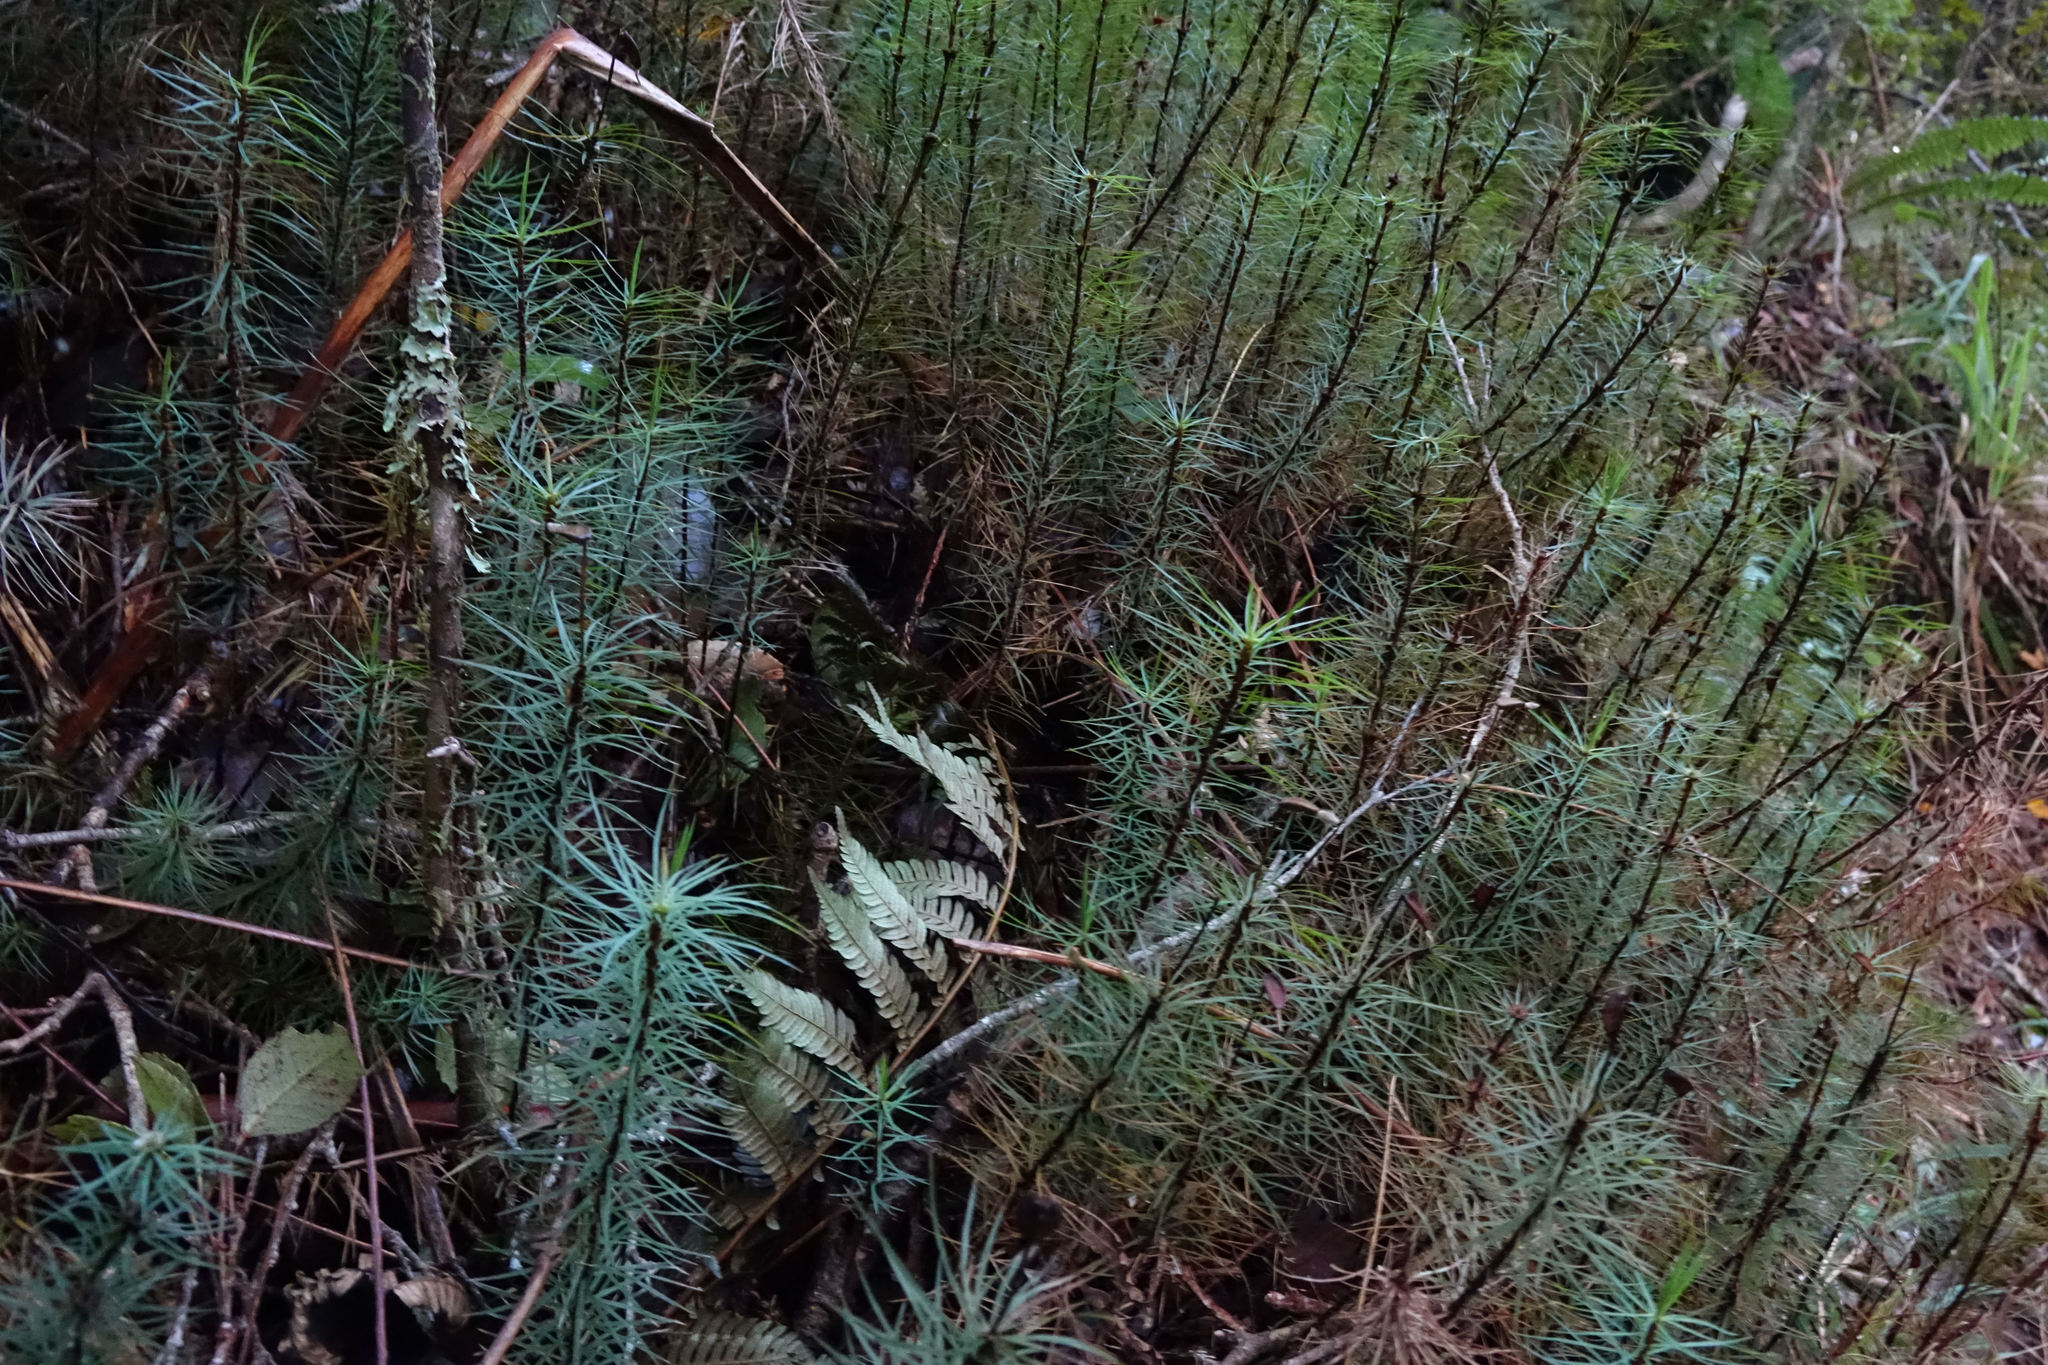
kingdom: Plantae
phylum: Bryophyta
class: Polytrichopsida
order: Polytrichales
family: Polytrichaceae
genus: Dawsonia
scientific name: Dawsonia superba
